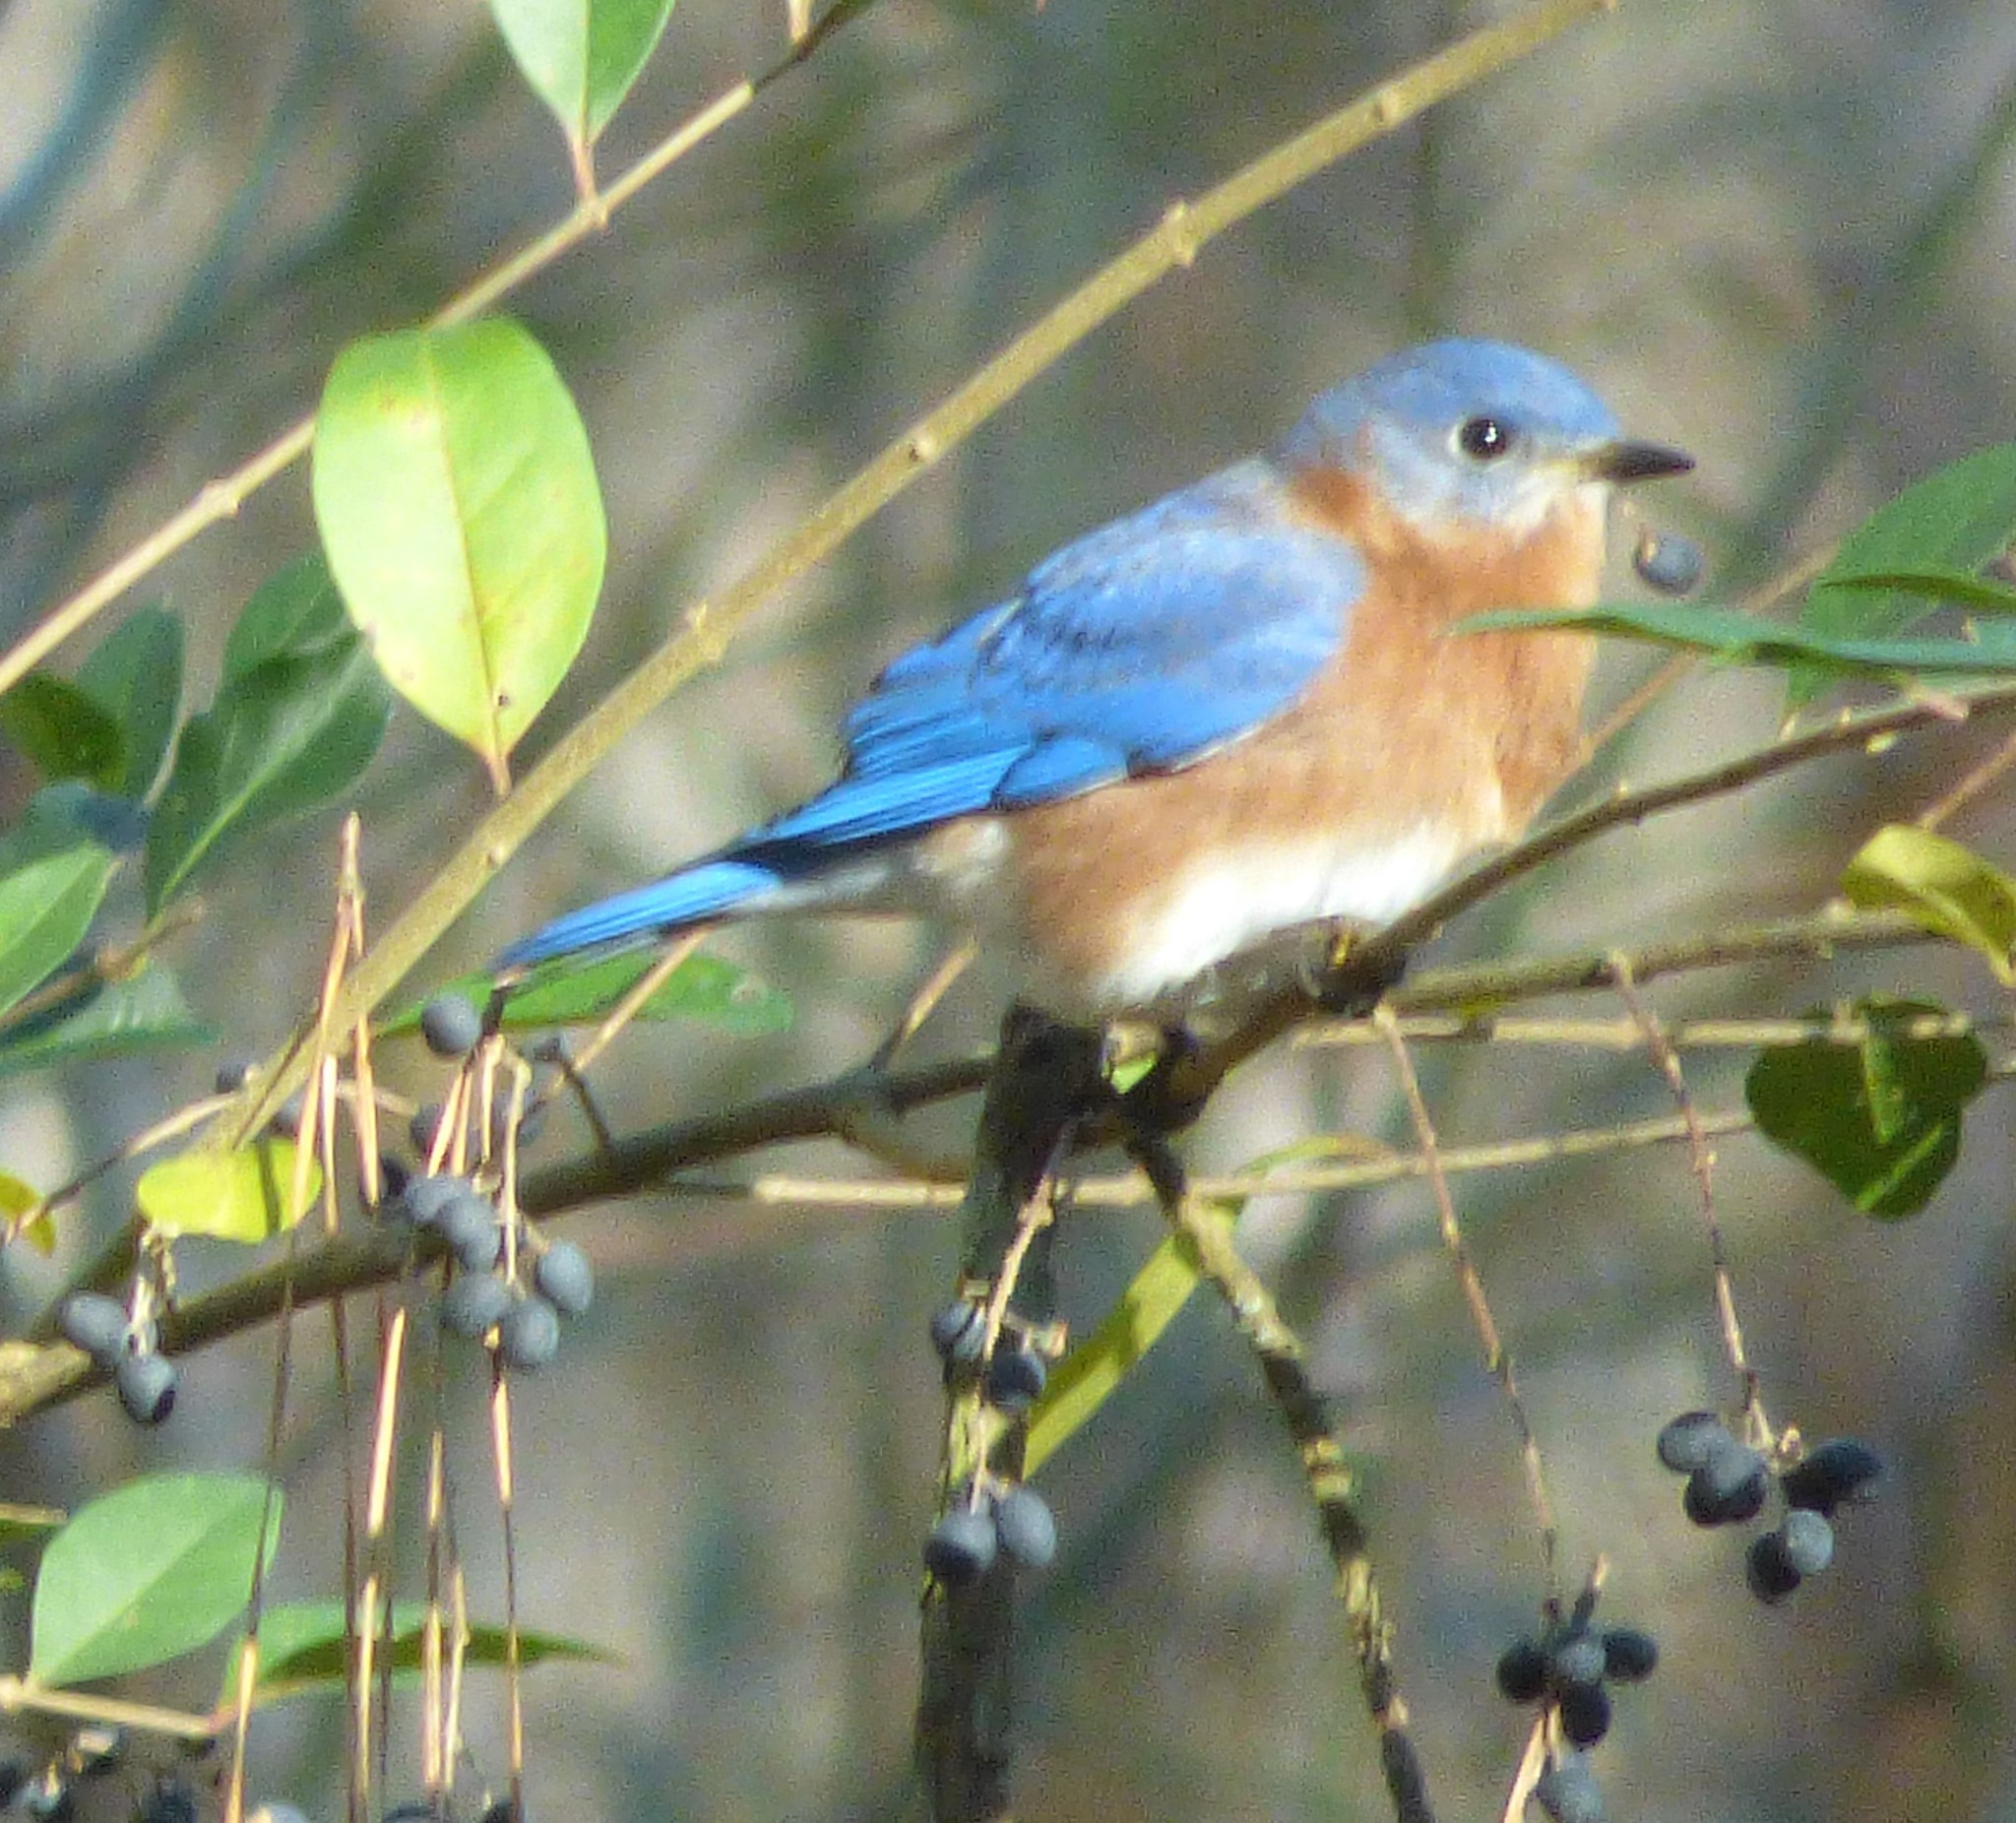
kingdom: Animalia
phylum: Chordata
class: Aves
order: Passeriformes
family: Turdidae
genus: Sialia
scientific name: Sialia sialis
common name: Eastern bluebird
